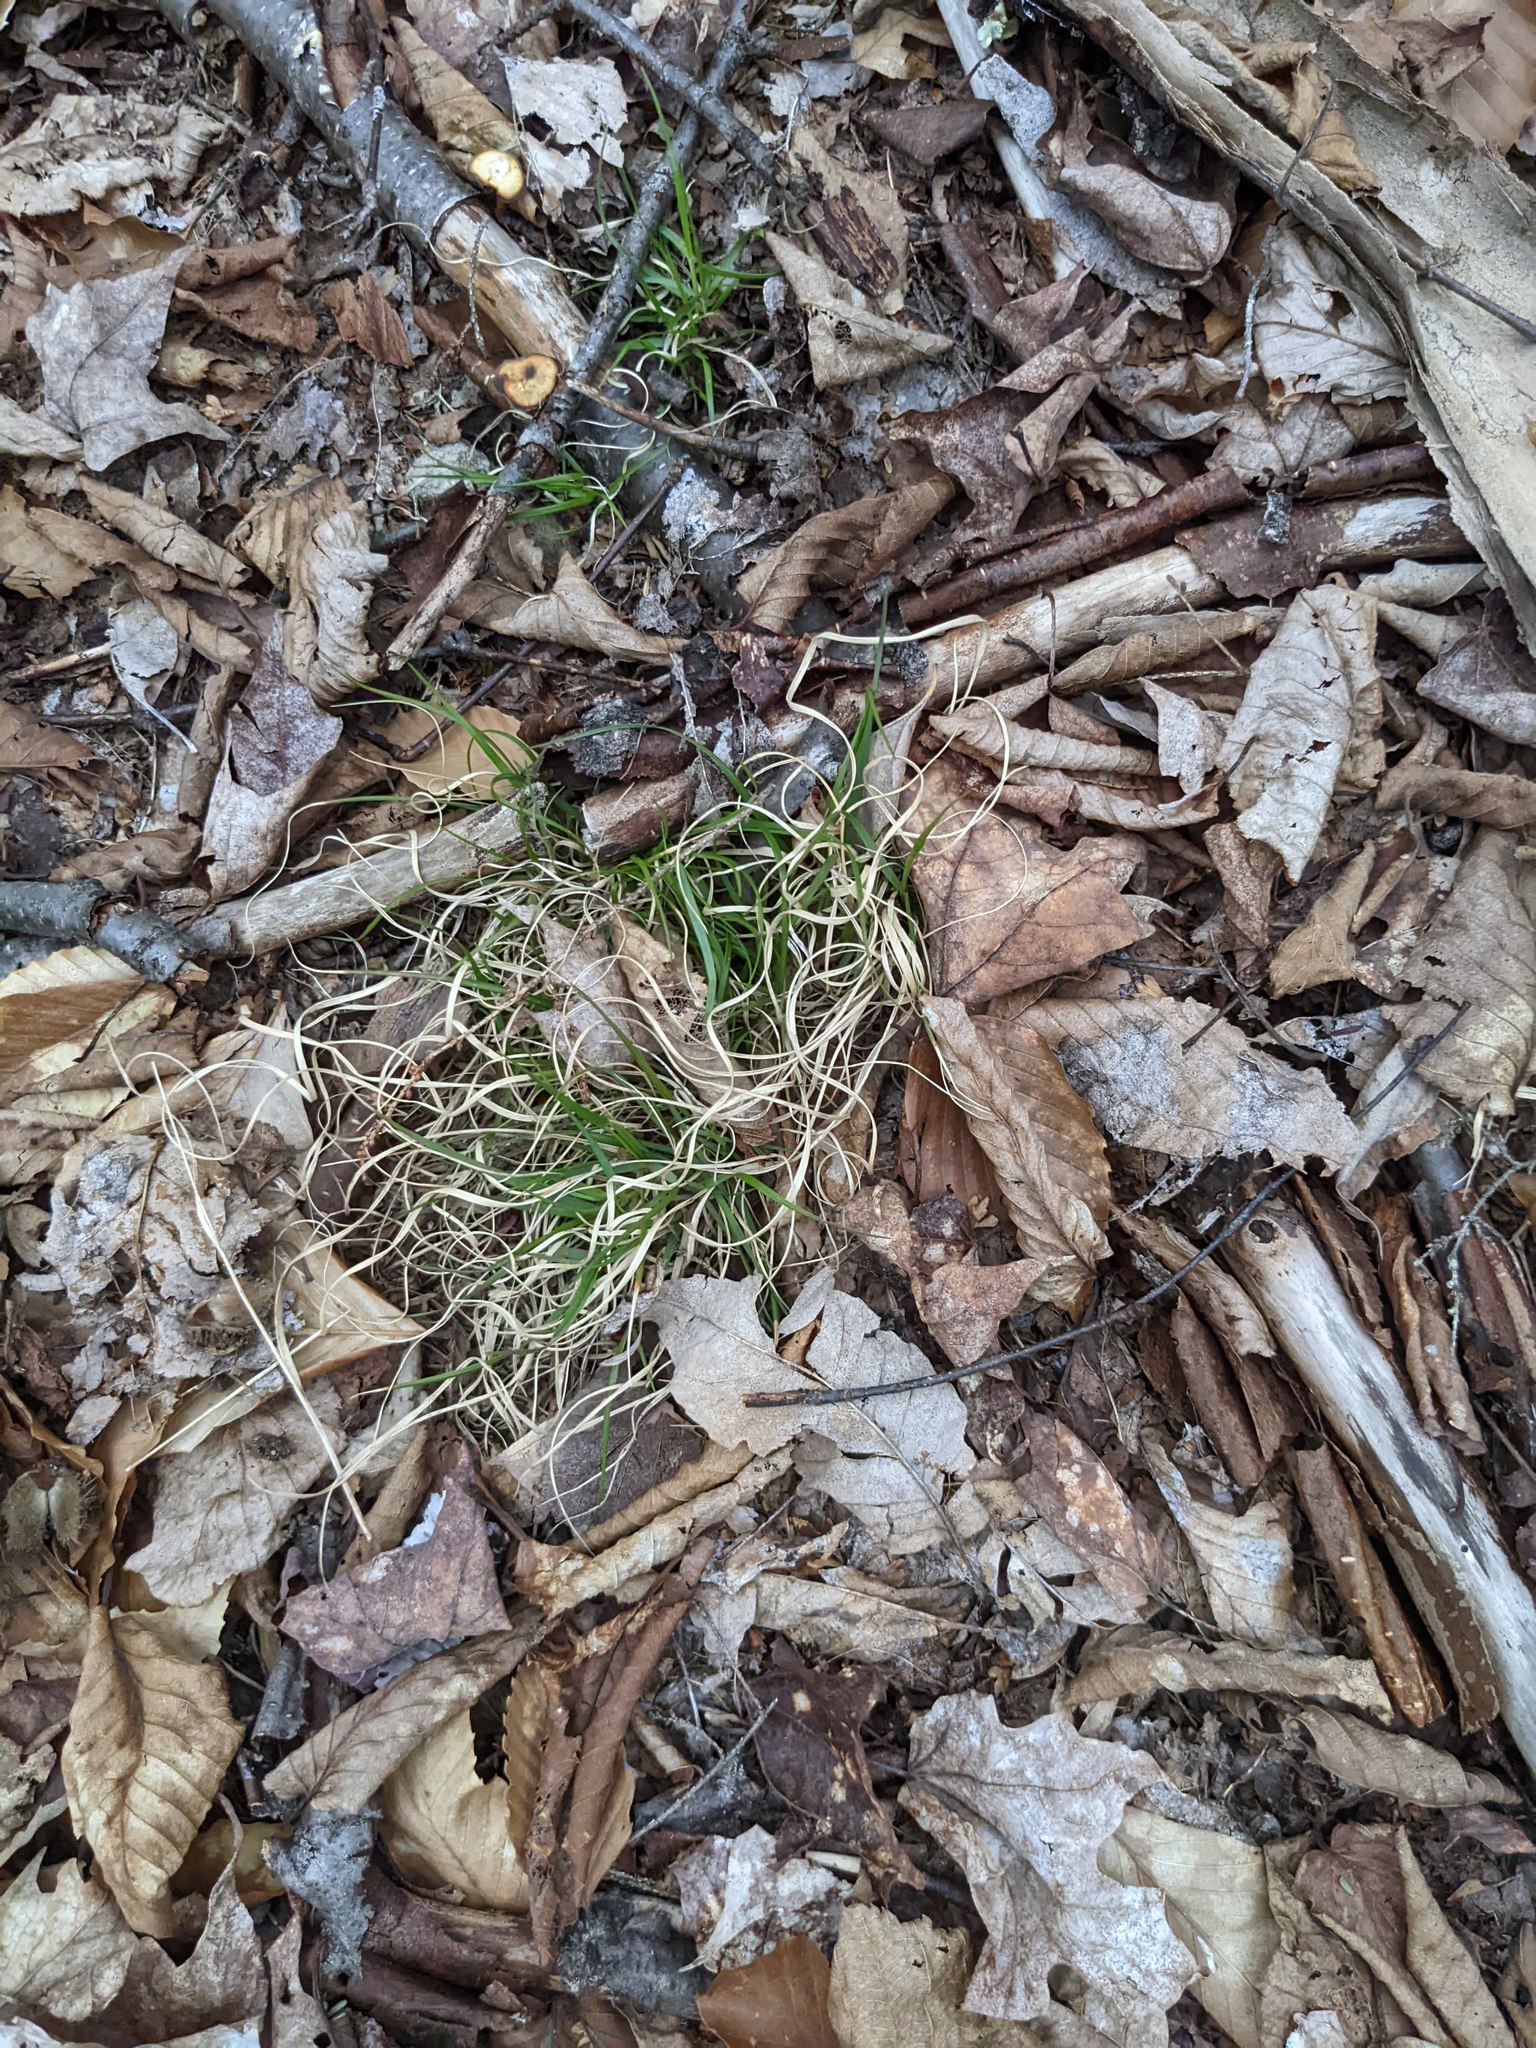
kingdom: Plantae
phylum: Tracheophyta
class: Liliopsida
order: Poales
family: Poaceae
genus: Danthonia
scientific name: Danthonia spicata
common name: Common wild oatgrass
